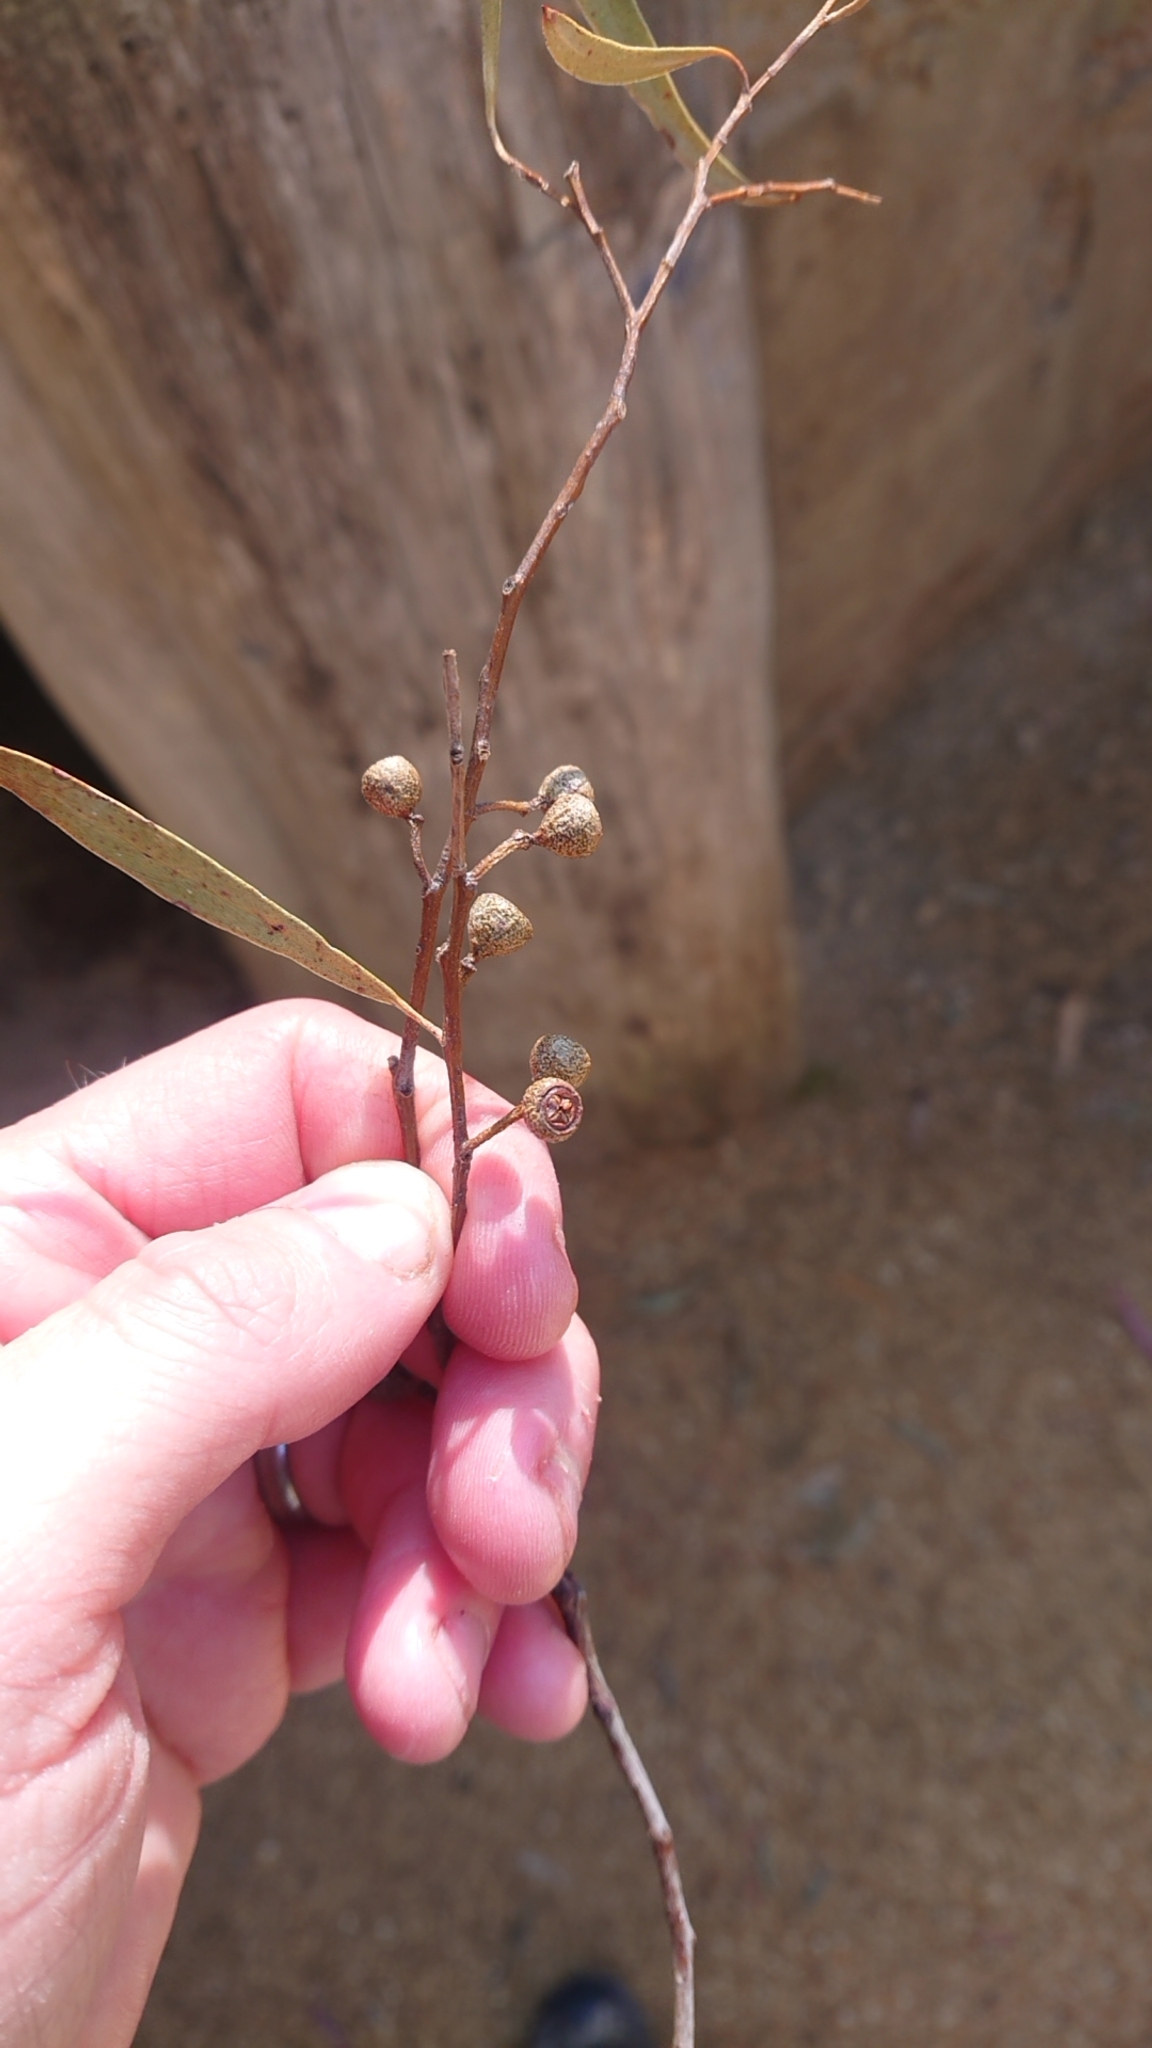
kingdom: Plantae
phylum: Tracheophyta
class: Magnoliopsida
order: Myrtales
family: Myrtaceae
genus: Eucalyptus
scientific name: Eucalyptus amygdalina
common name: Black peppermint
